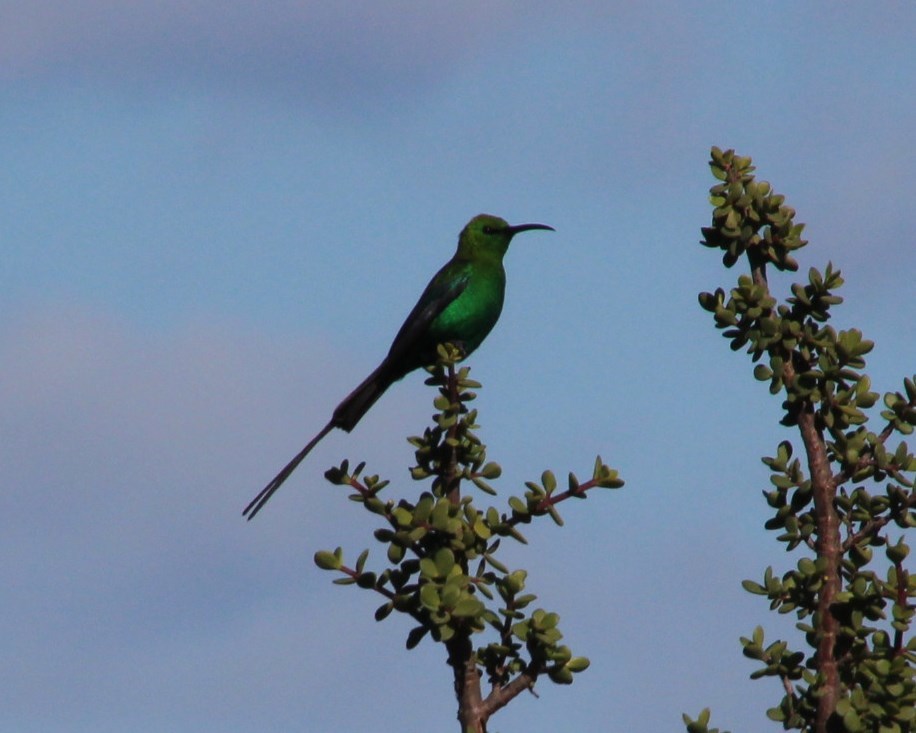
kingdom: Animalia
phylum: Chordata
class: Aves
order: Passeriformes
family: Nectariniidae
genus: Nectarinia
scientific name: Nectarinia famosa
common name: Malachite sunbird
